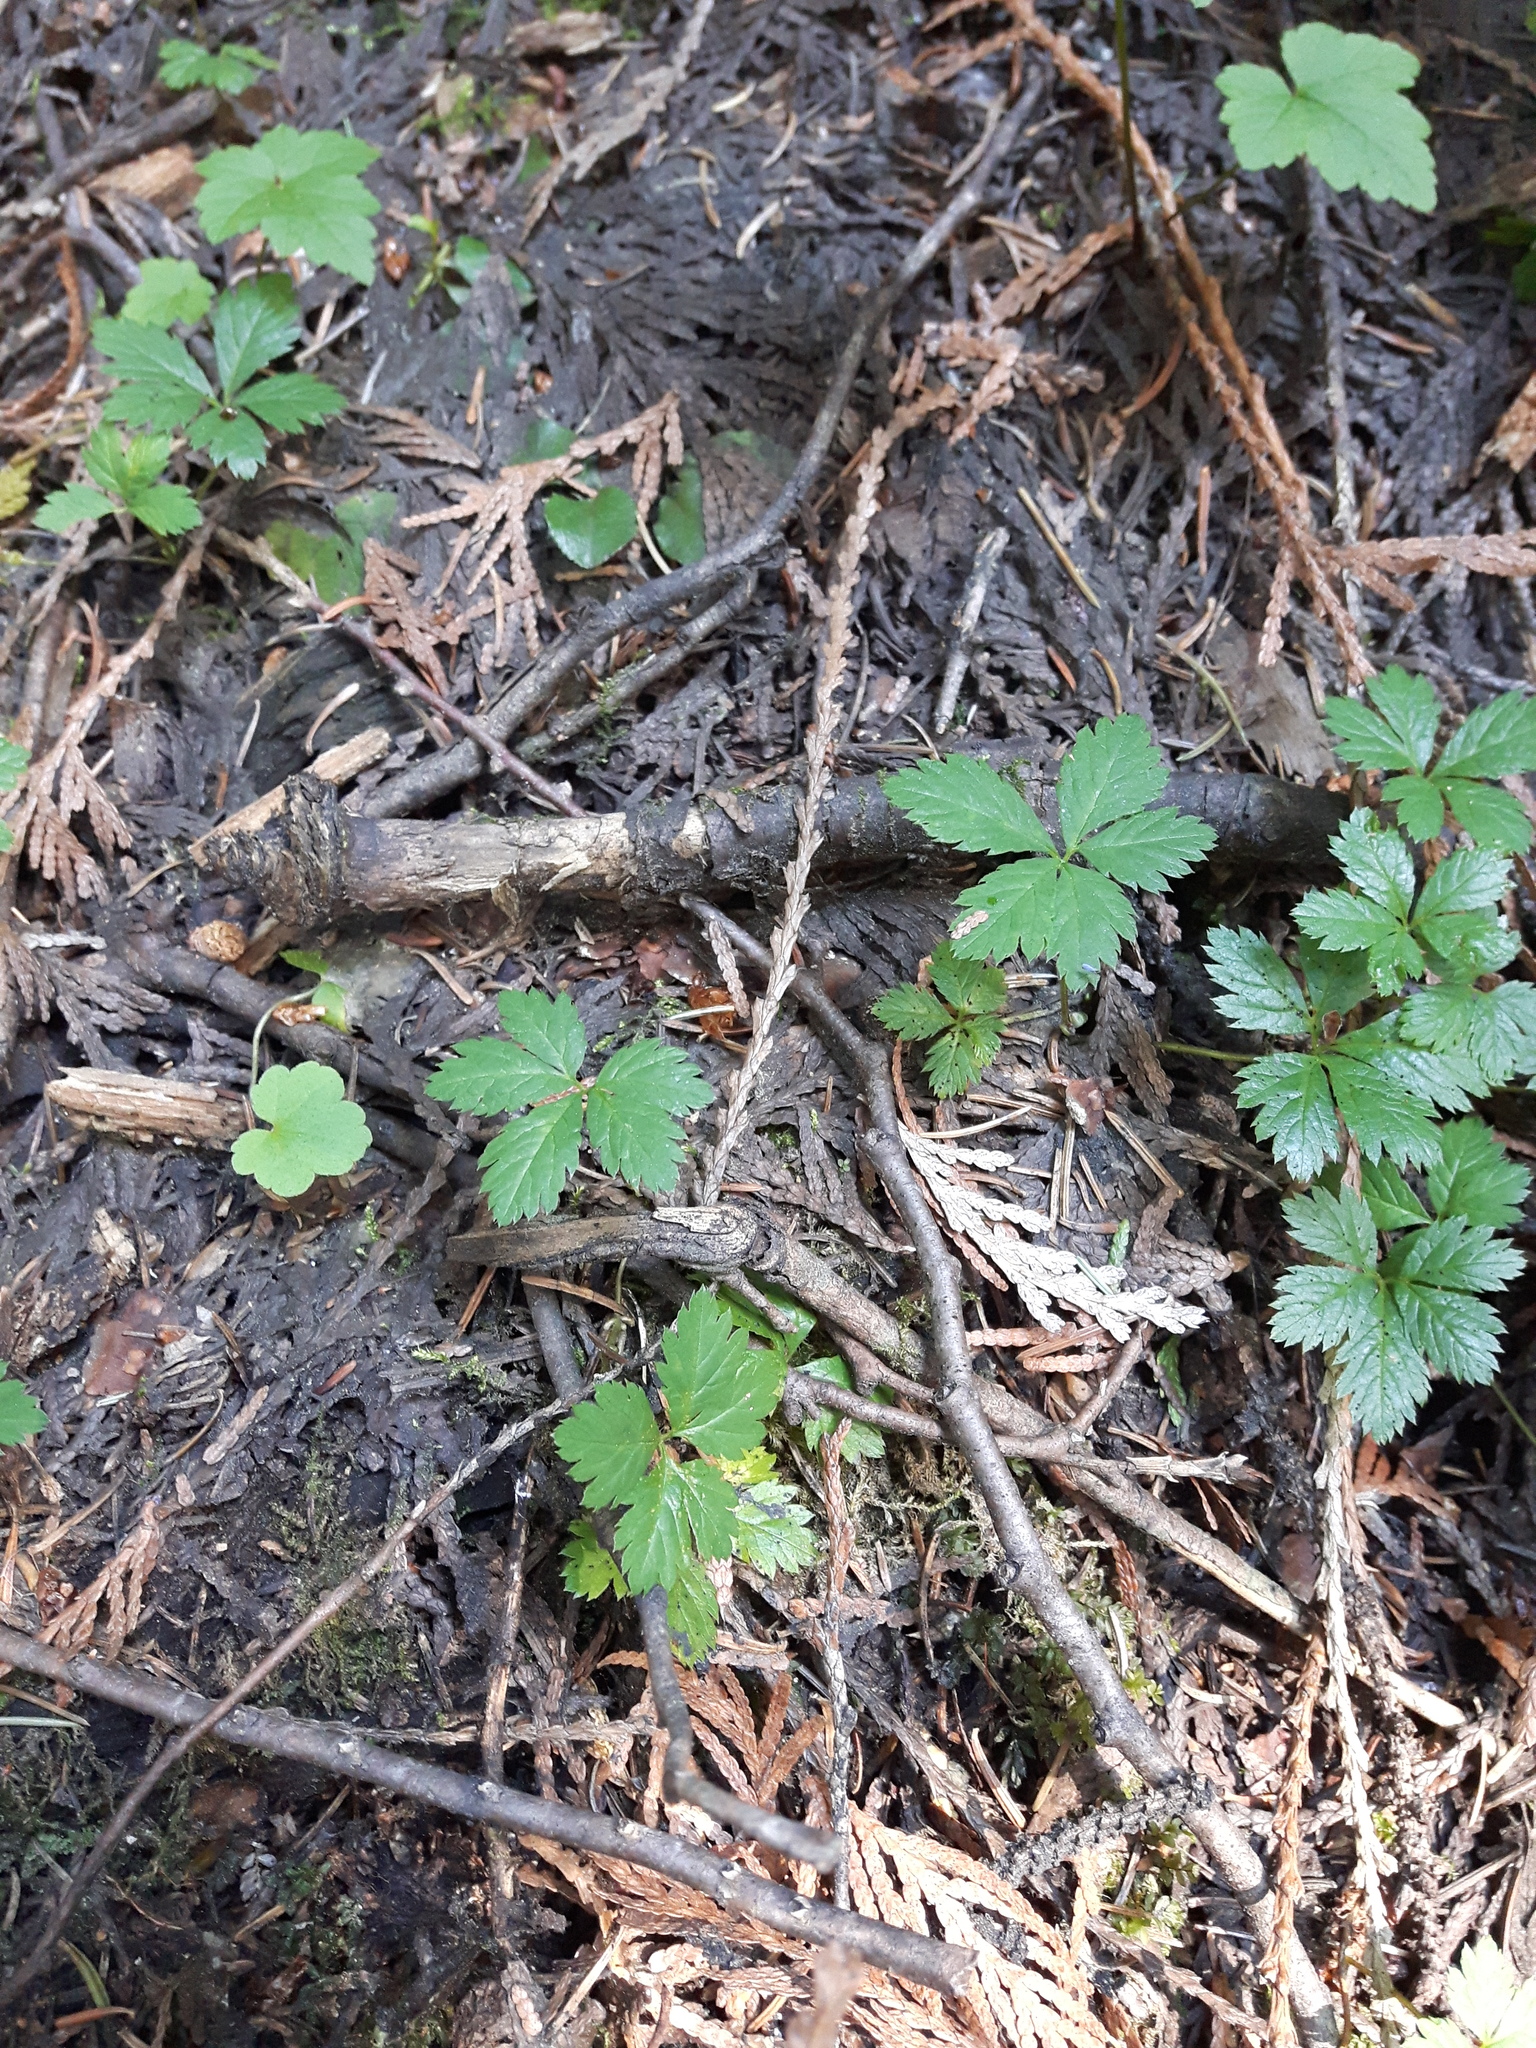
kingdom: Plantae
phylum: Tracheophyta
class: Magnoliopsida
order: Rosales
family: Rosaceae
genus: Rubus
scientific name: Rubus pedatus
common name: Creeping raspberry
